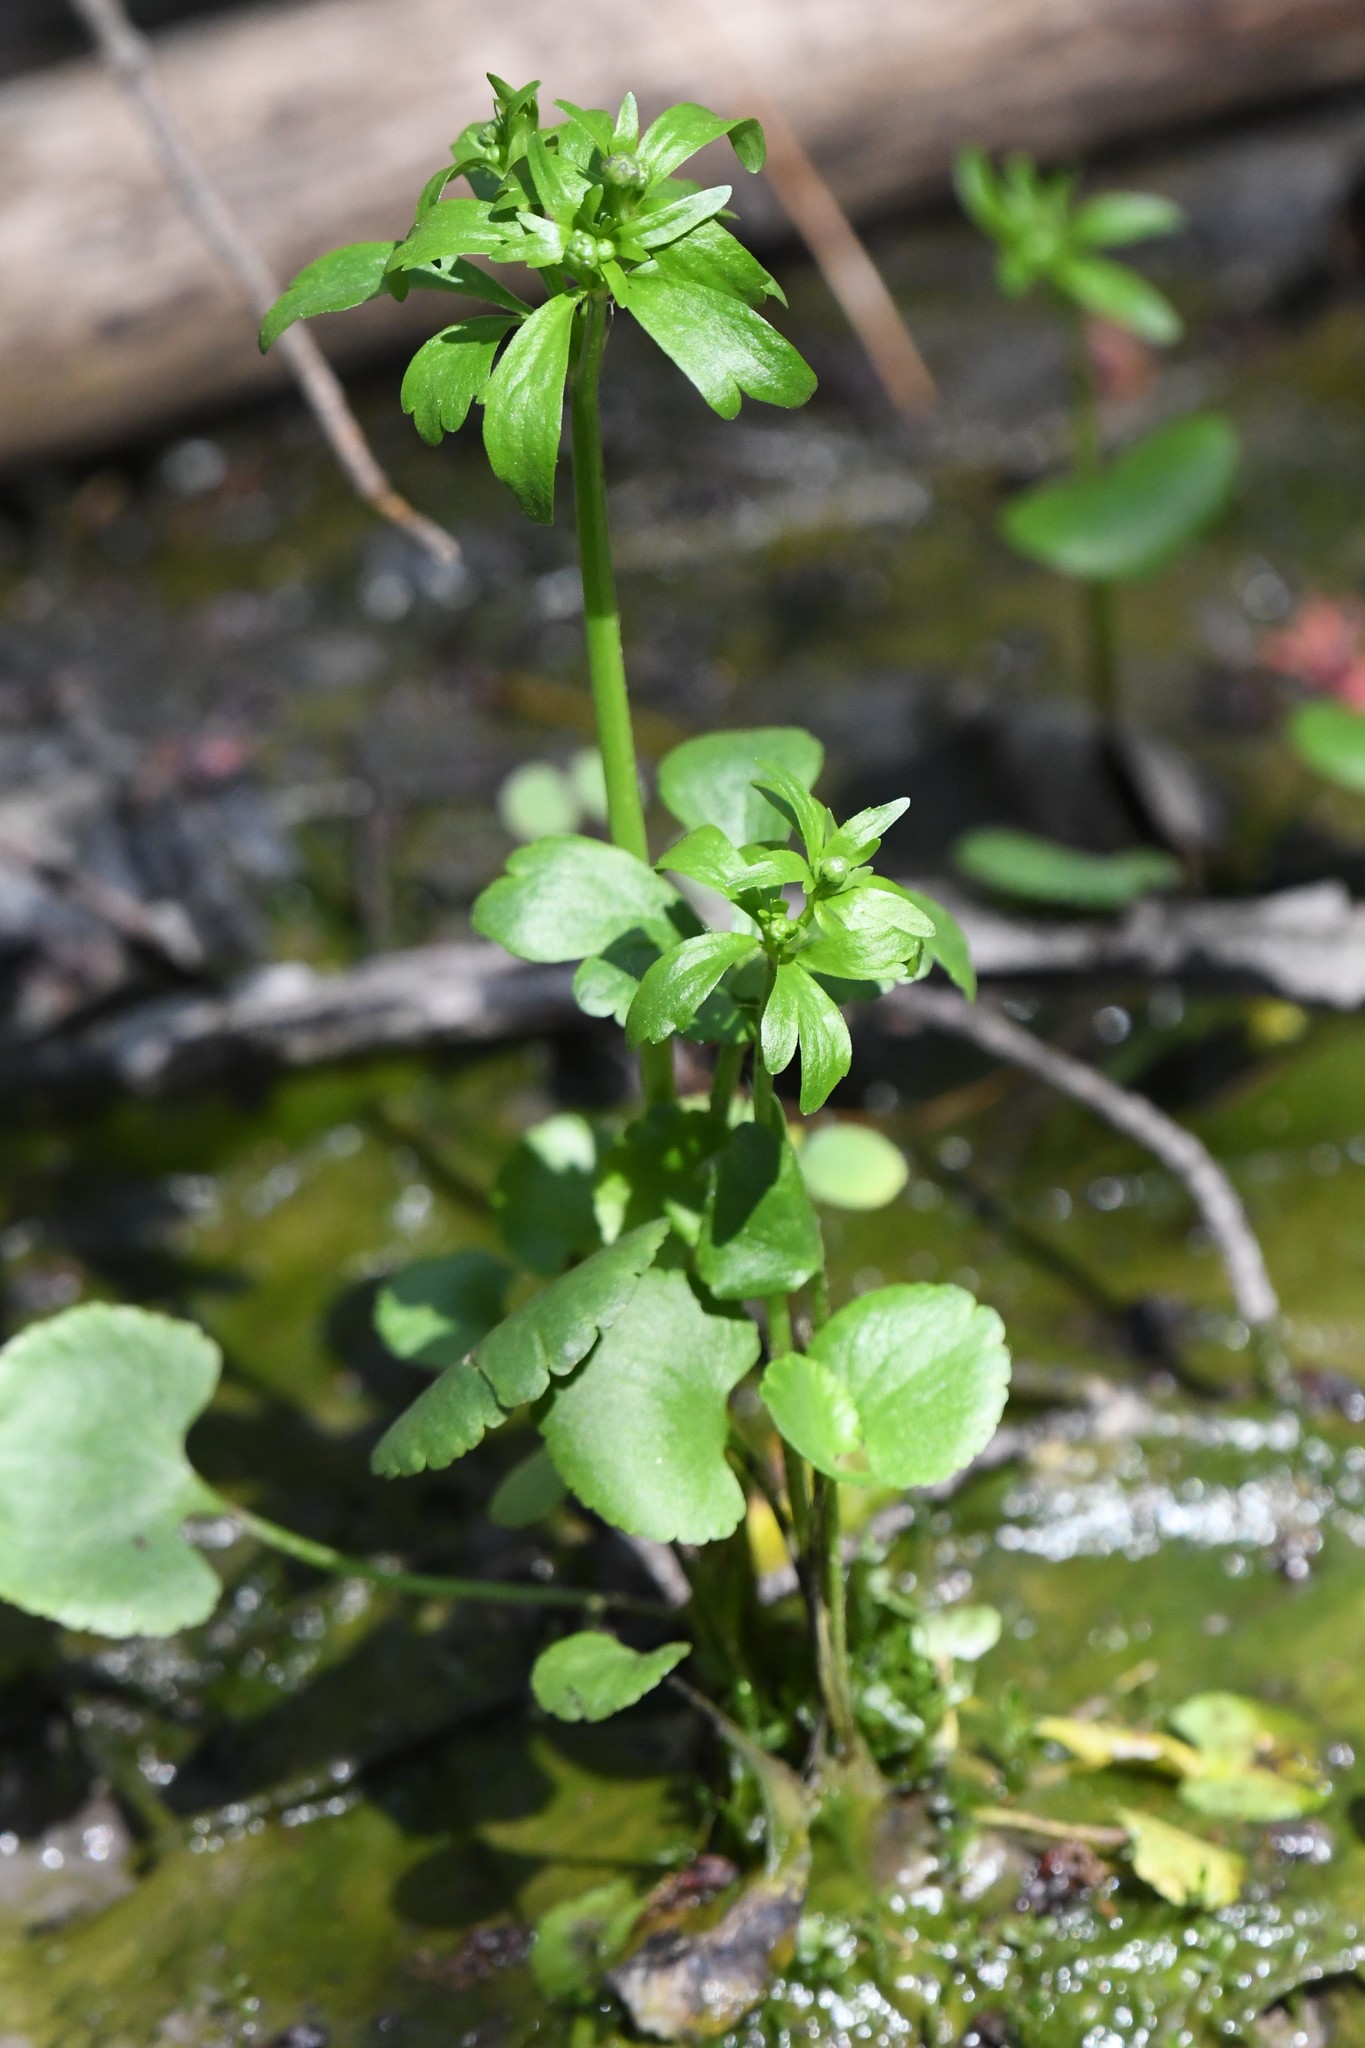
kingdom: Plantae
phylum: Tracheophyta
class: Magnoliopsida
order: Ranunculales
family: Ranunculaceae
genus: Ranunculus
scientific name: Ranunculus abortivus
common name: Early wood buttercup
